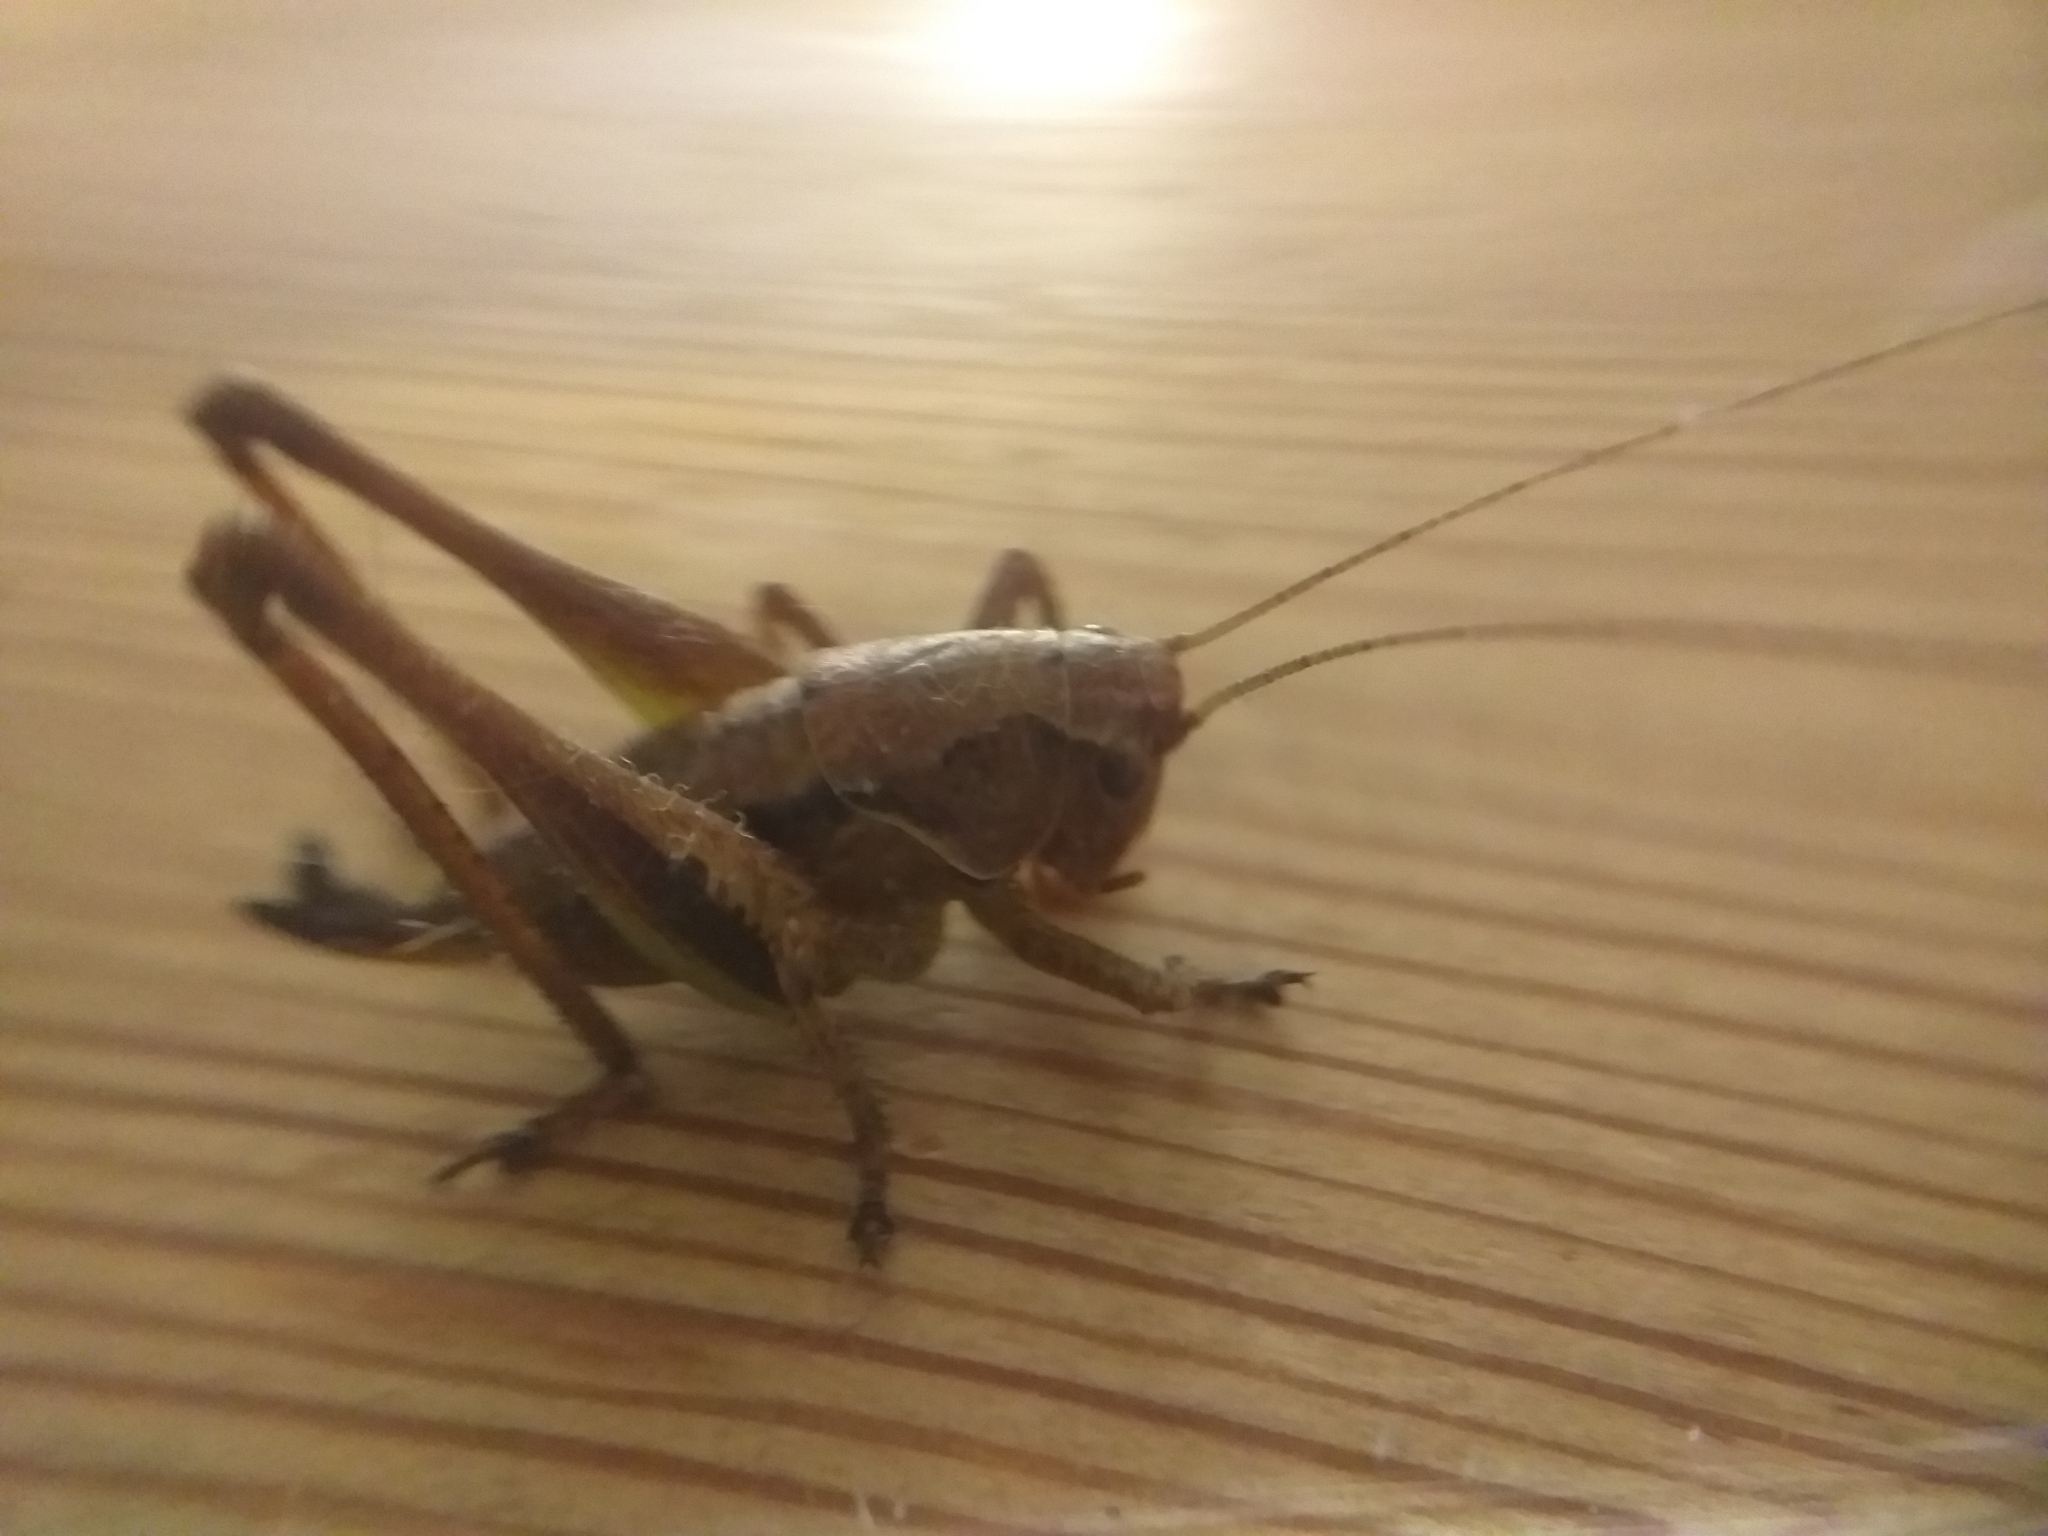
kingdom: Animalia
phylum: Arthropoda
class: Insecta
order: Orthoptera
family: Tettigoniidae
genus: Pholidoptera
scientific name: Pholidoptera griseoaptera
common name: Dark bush-cricket
